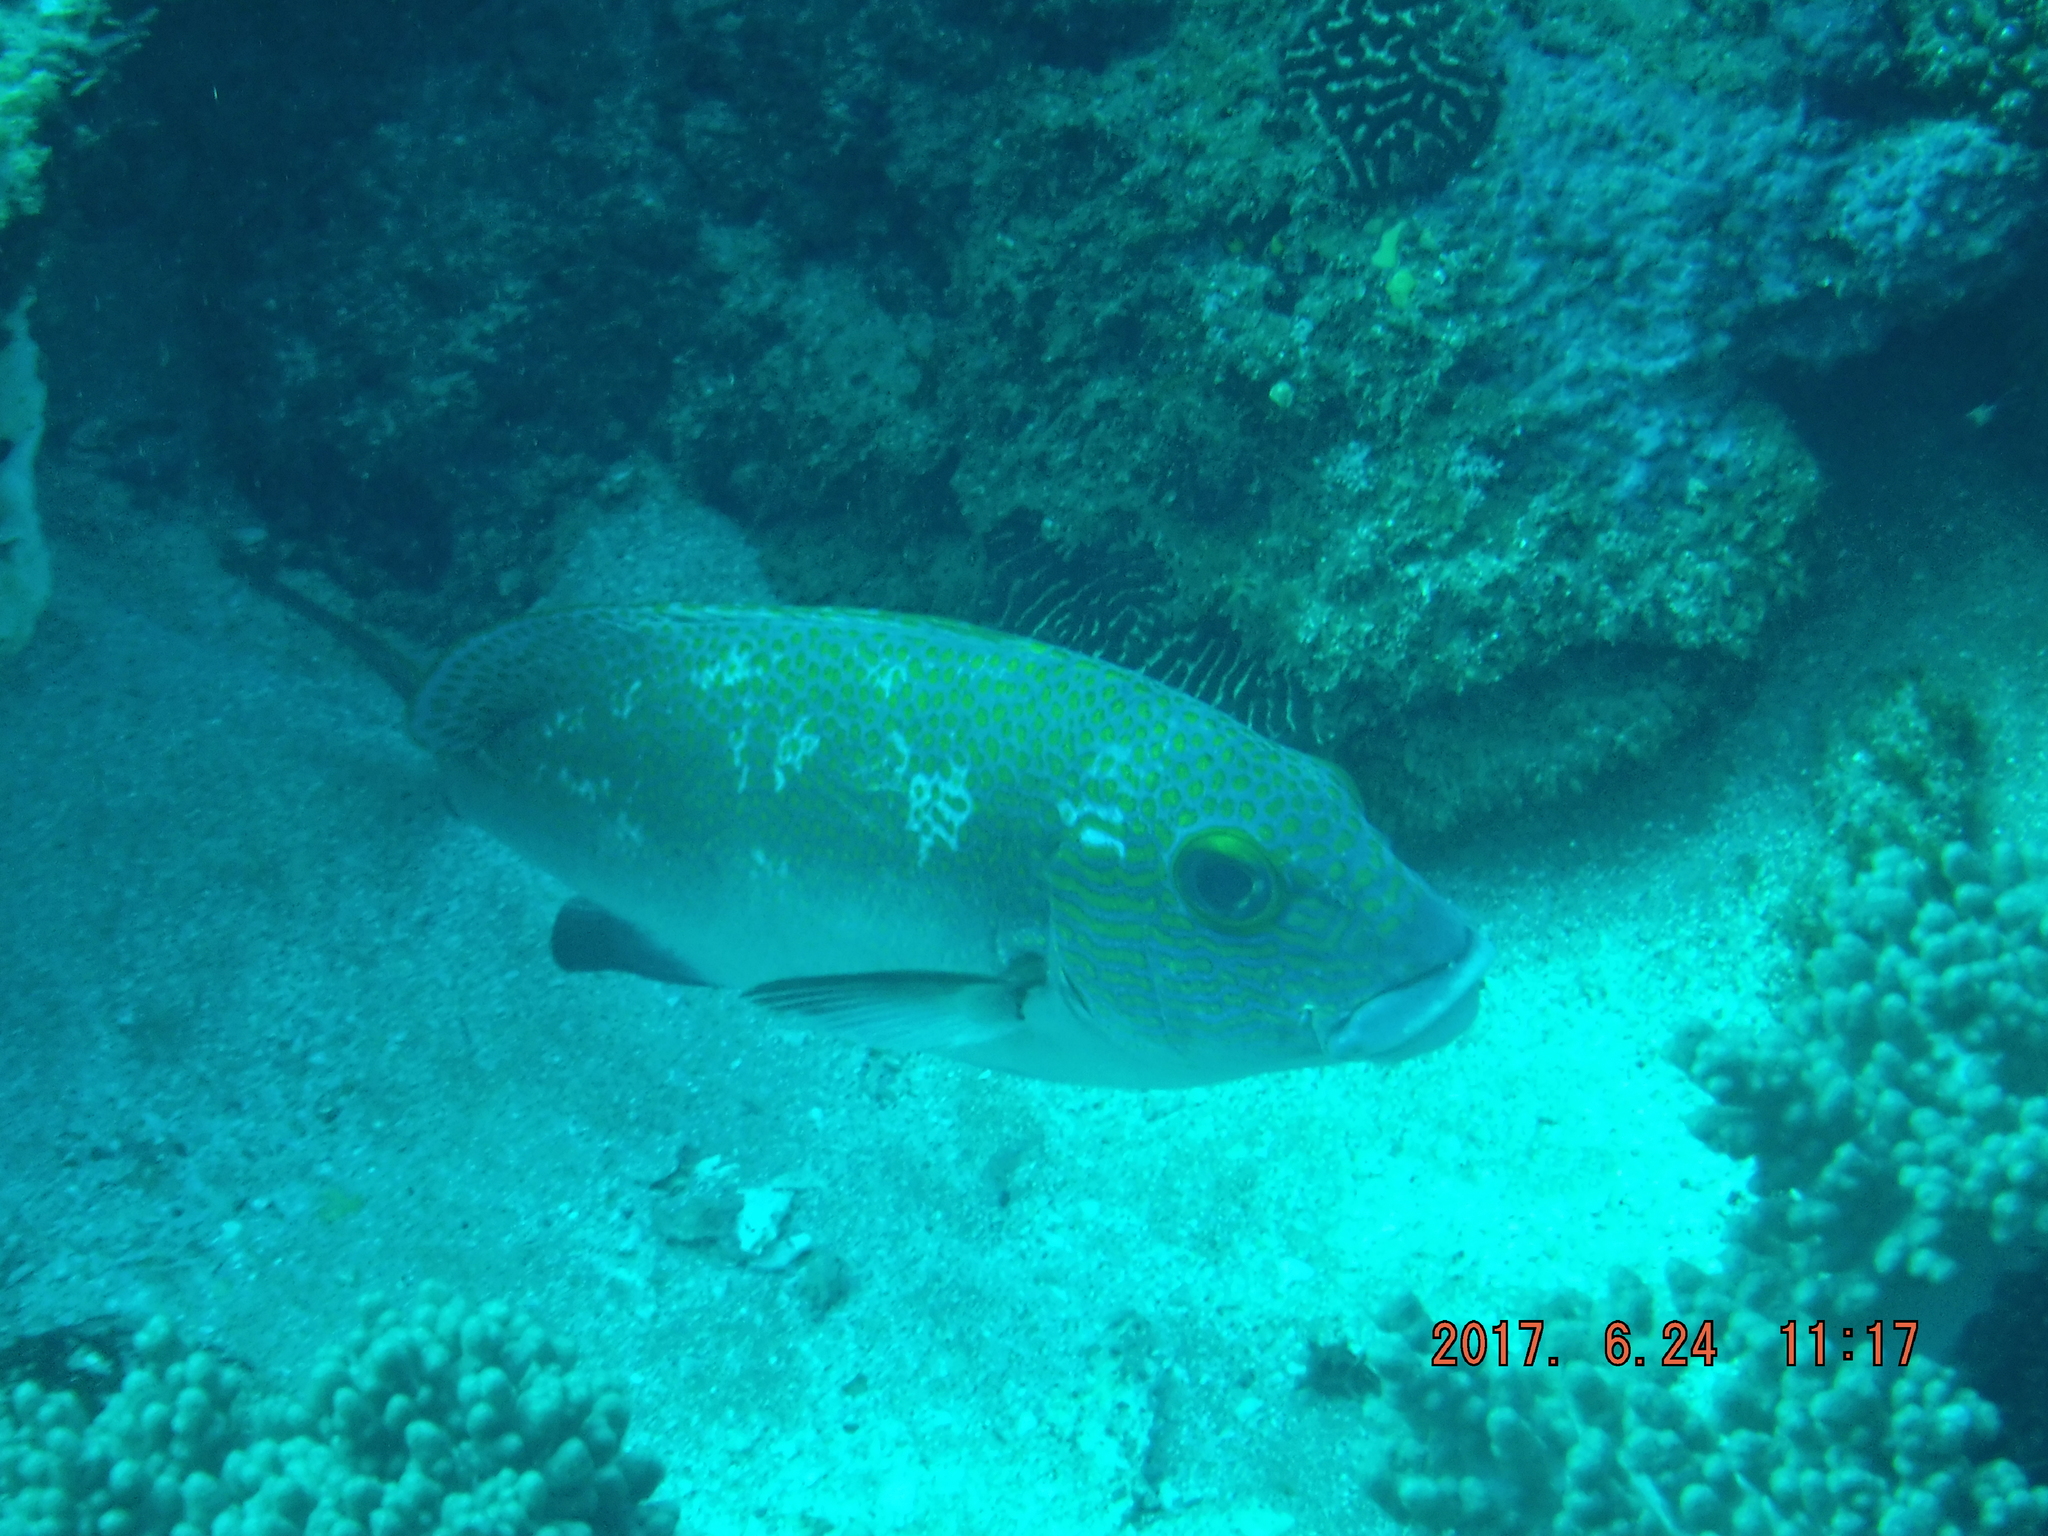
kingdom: Animalia
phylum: Chordata
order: Perciformes
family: Haemulidae
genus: Plectorhinchus
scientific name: Plectorhinchus flavomaculatus
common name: Netted sweetlips
